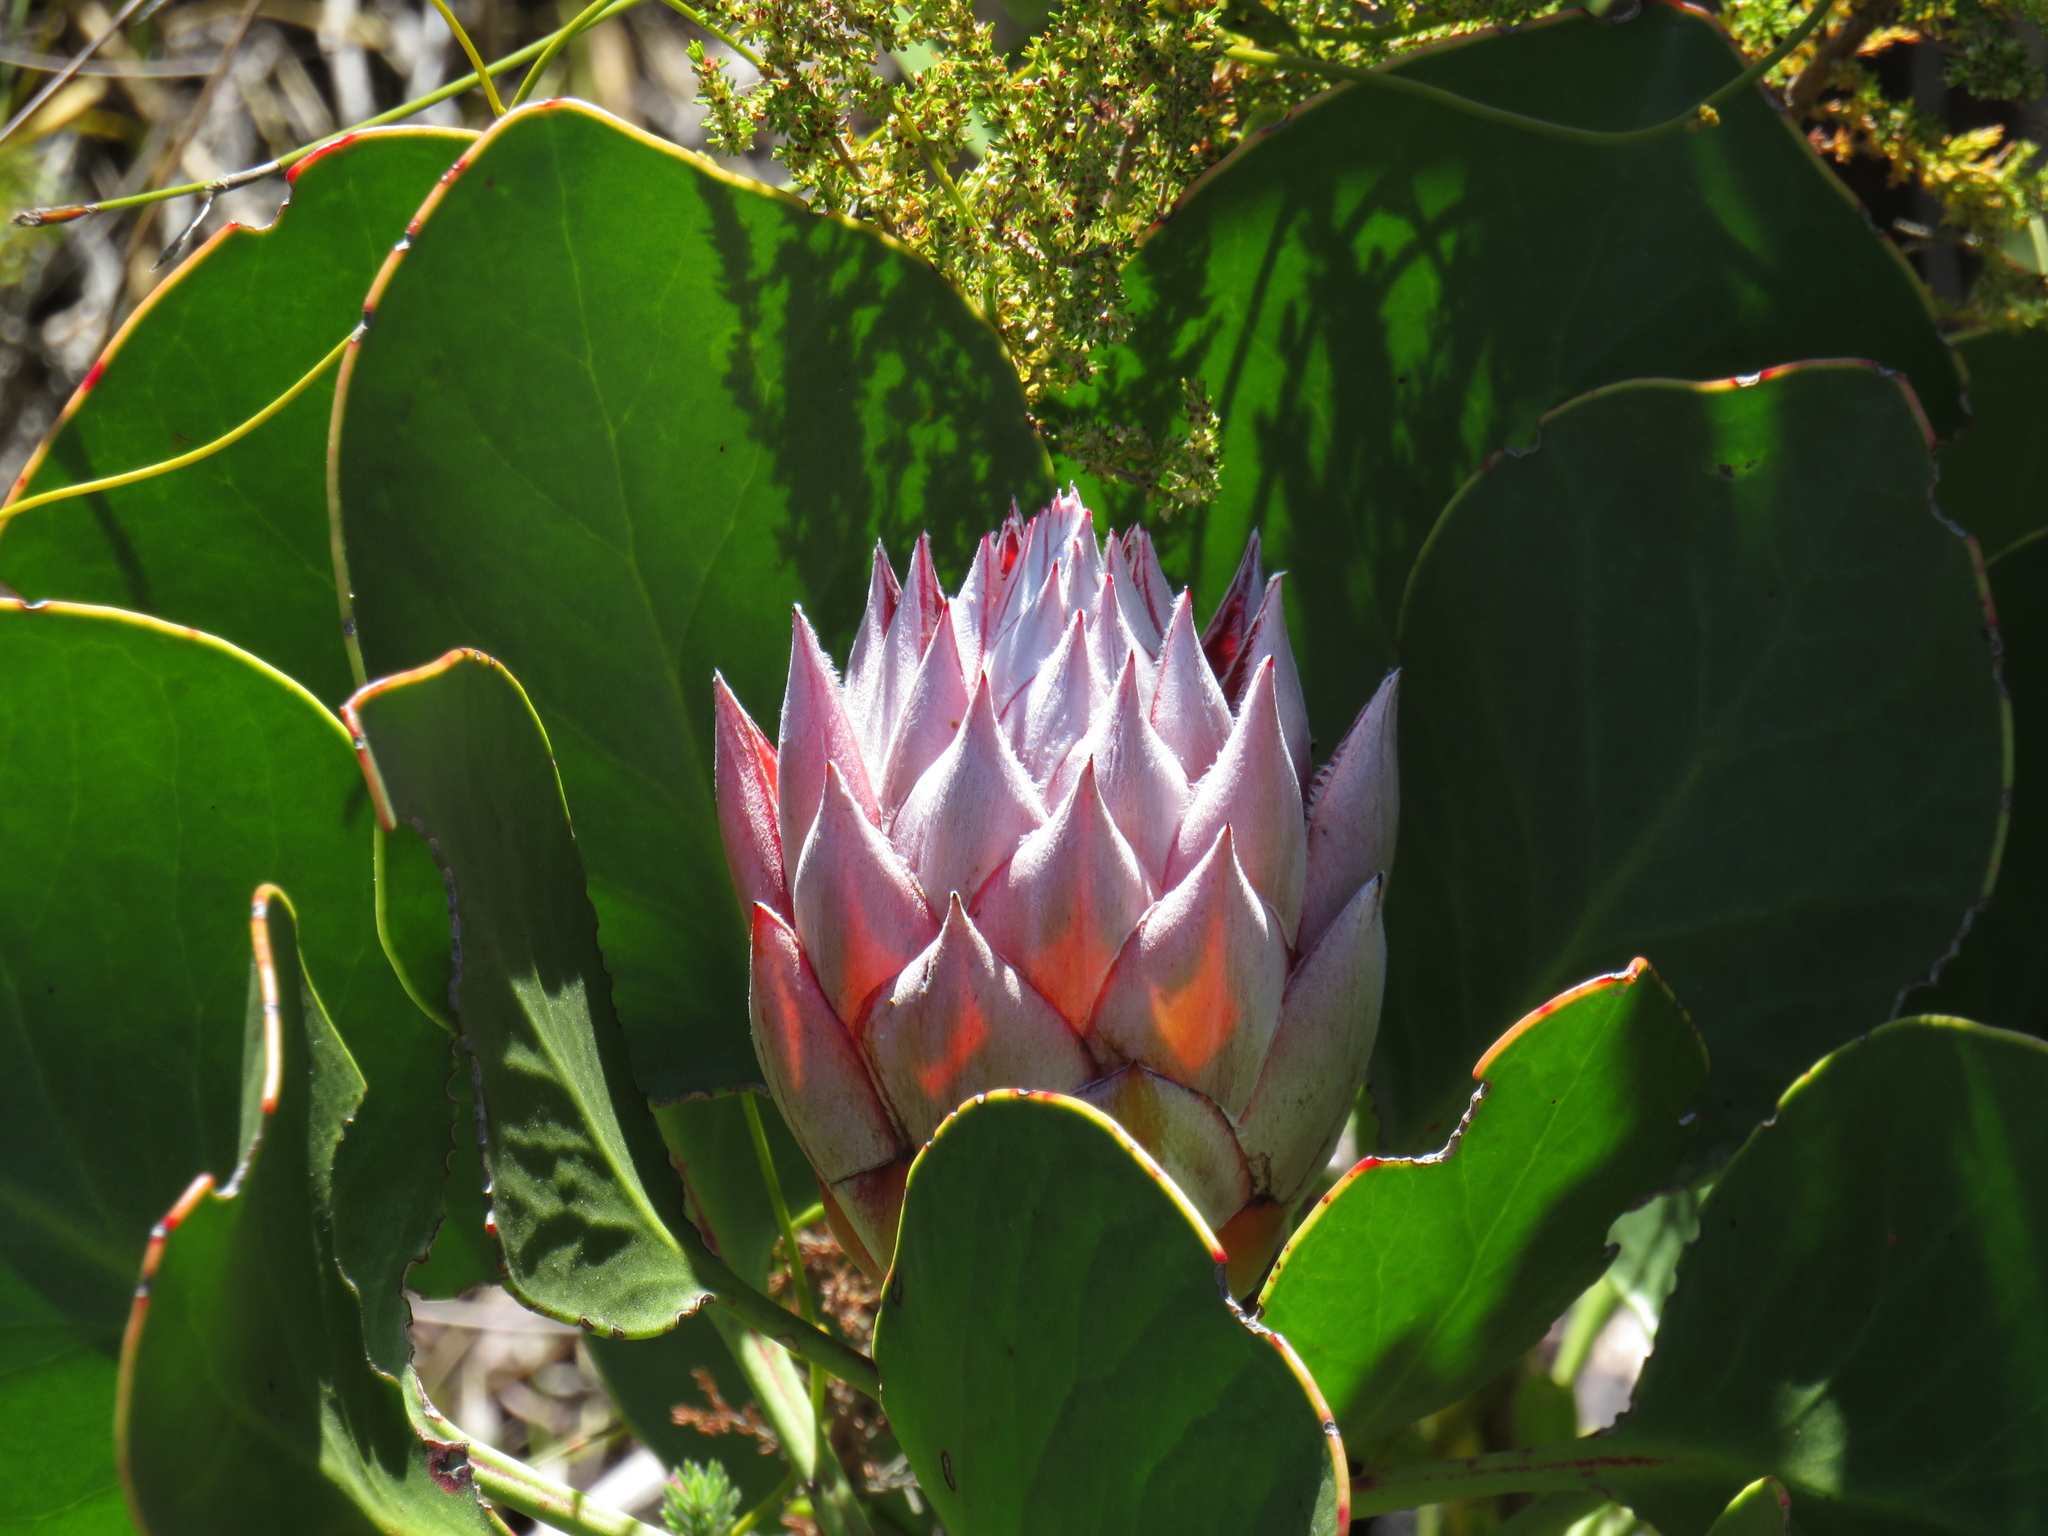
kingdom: Plantae
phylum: Tracheophyta
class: Magnoliopsida
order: Proteales
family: Proteaceae
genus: Protea
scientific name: Protea cynaroides
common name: King protea
